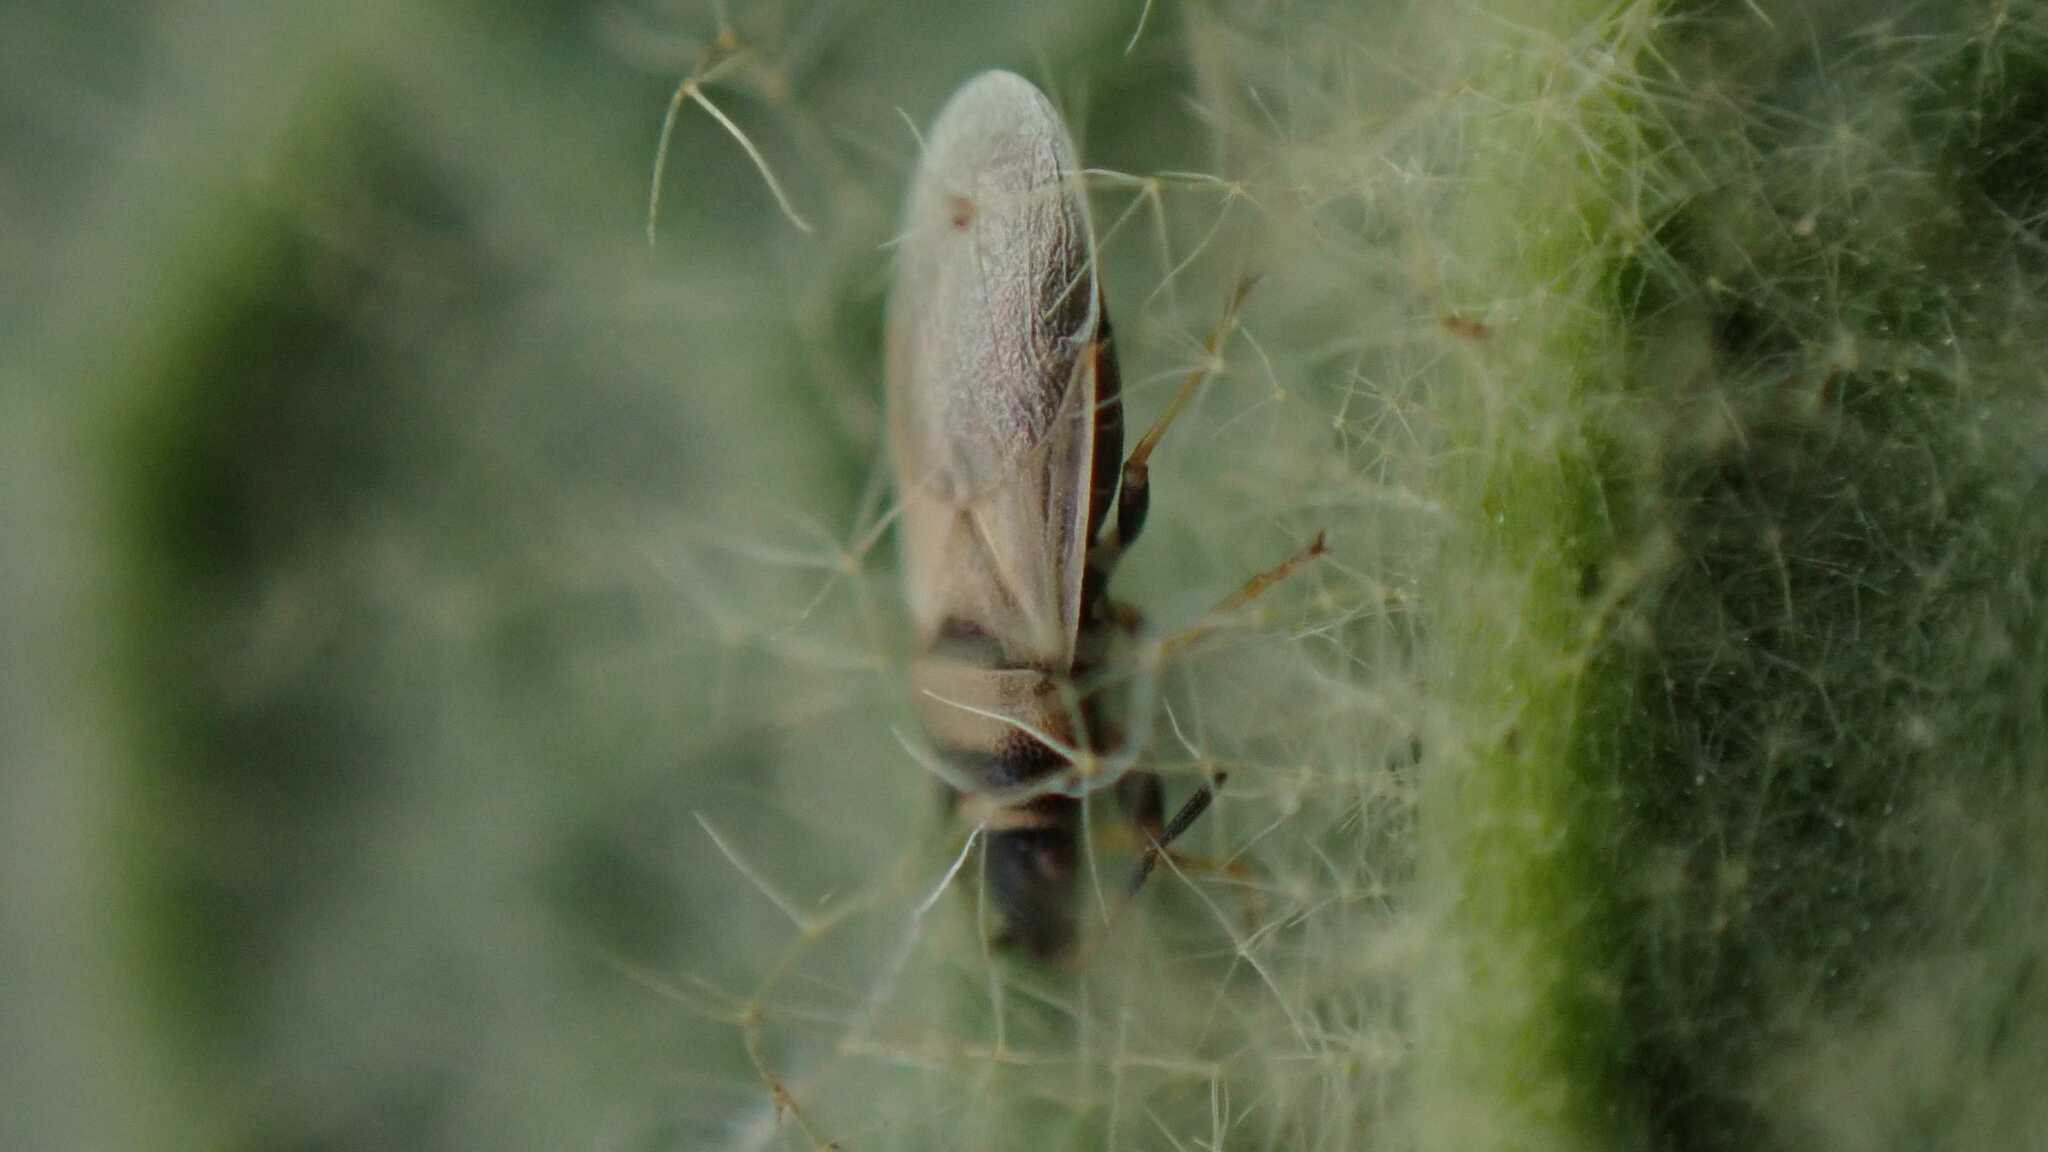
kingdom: Animalia
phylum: Arthropoda
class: Insecta
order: Hemiptera
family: Oxycarenidae
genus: Oxycarenus
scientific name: Oxycarenus pallens
